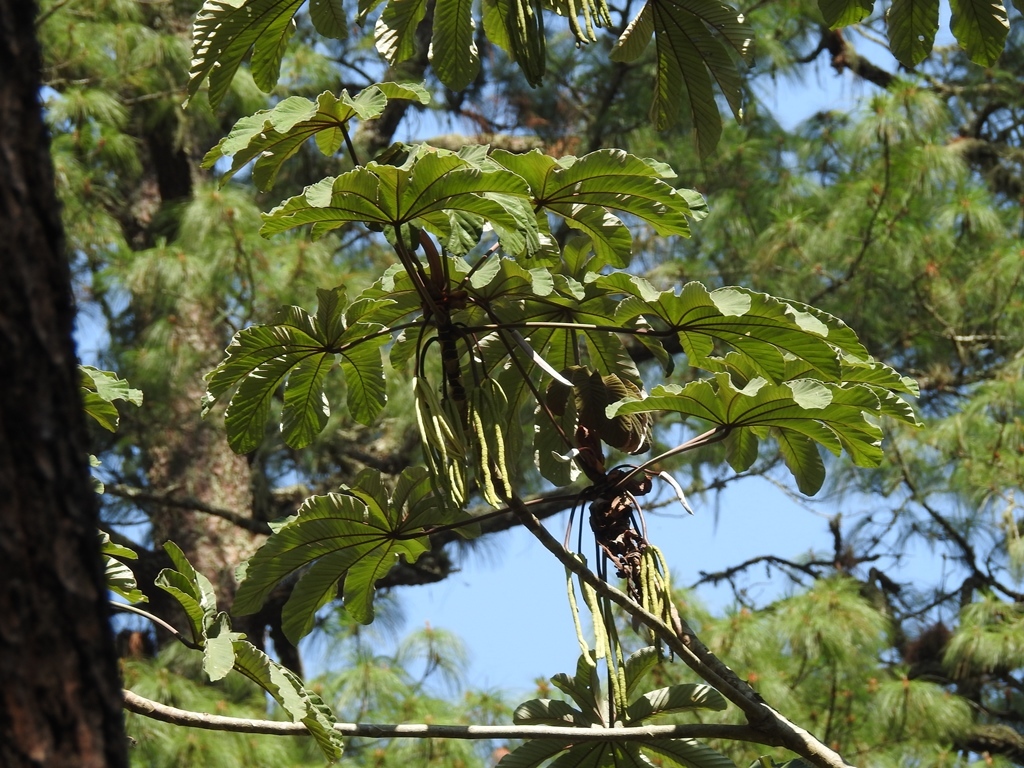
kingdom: Plantae
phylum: Tracheophyta
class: Magnoliopsida
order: Rosales
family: Urticaceae
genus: Cecropia
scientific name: Cecropia obtusifolia
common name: Trumpet tree
